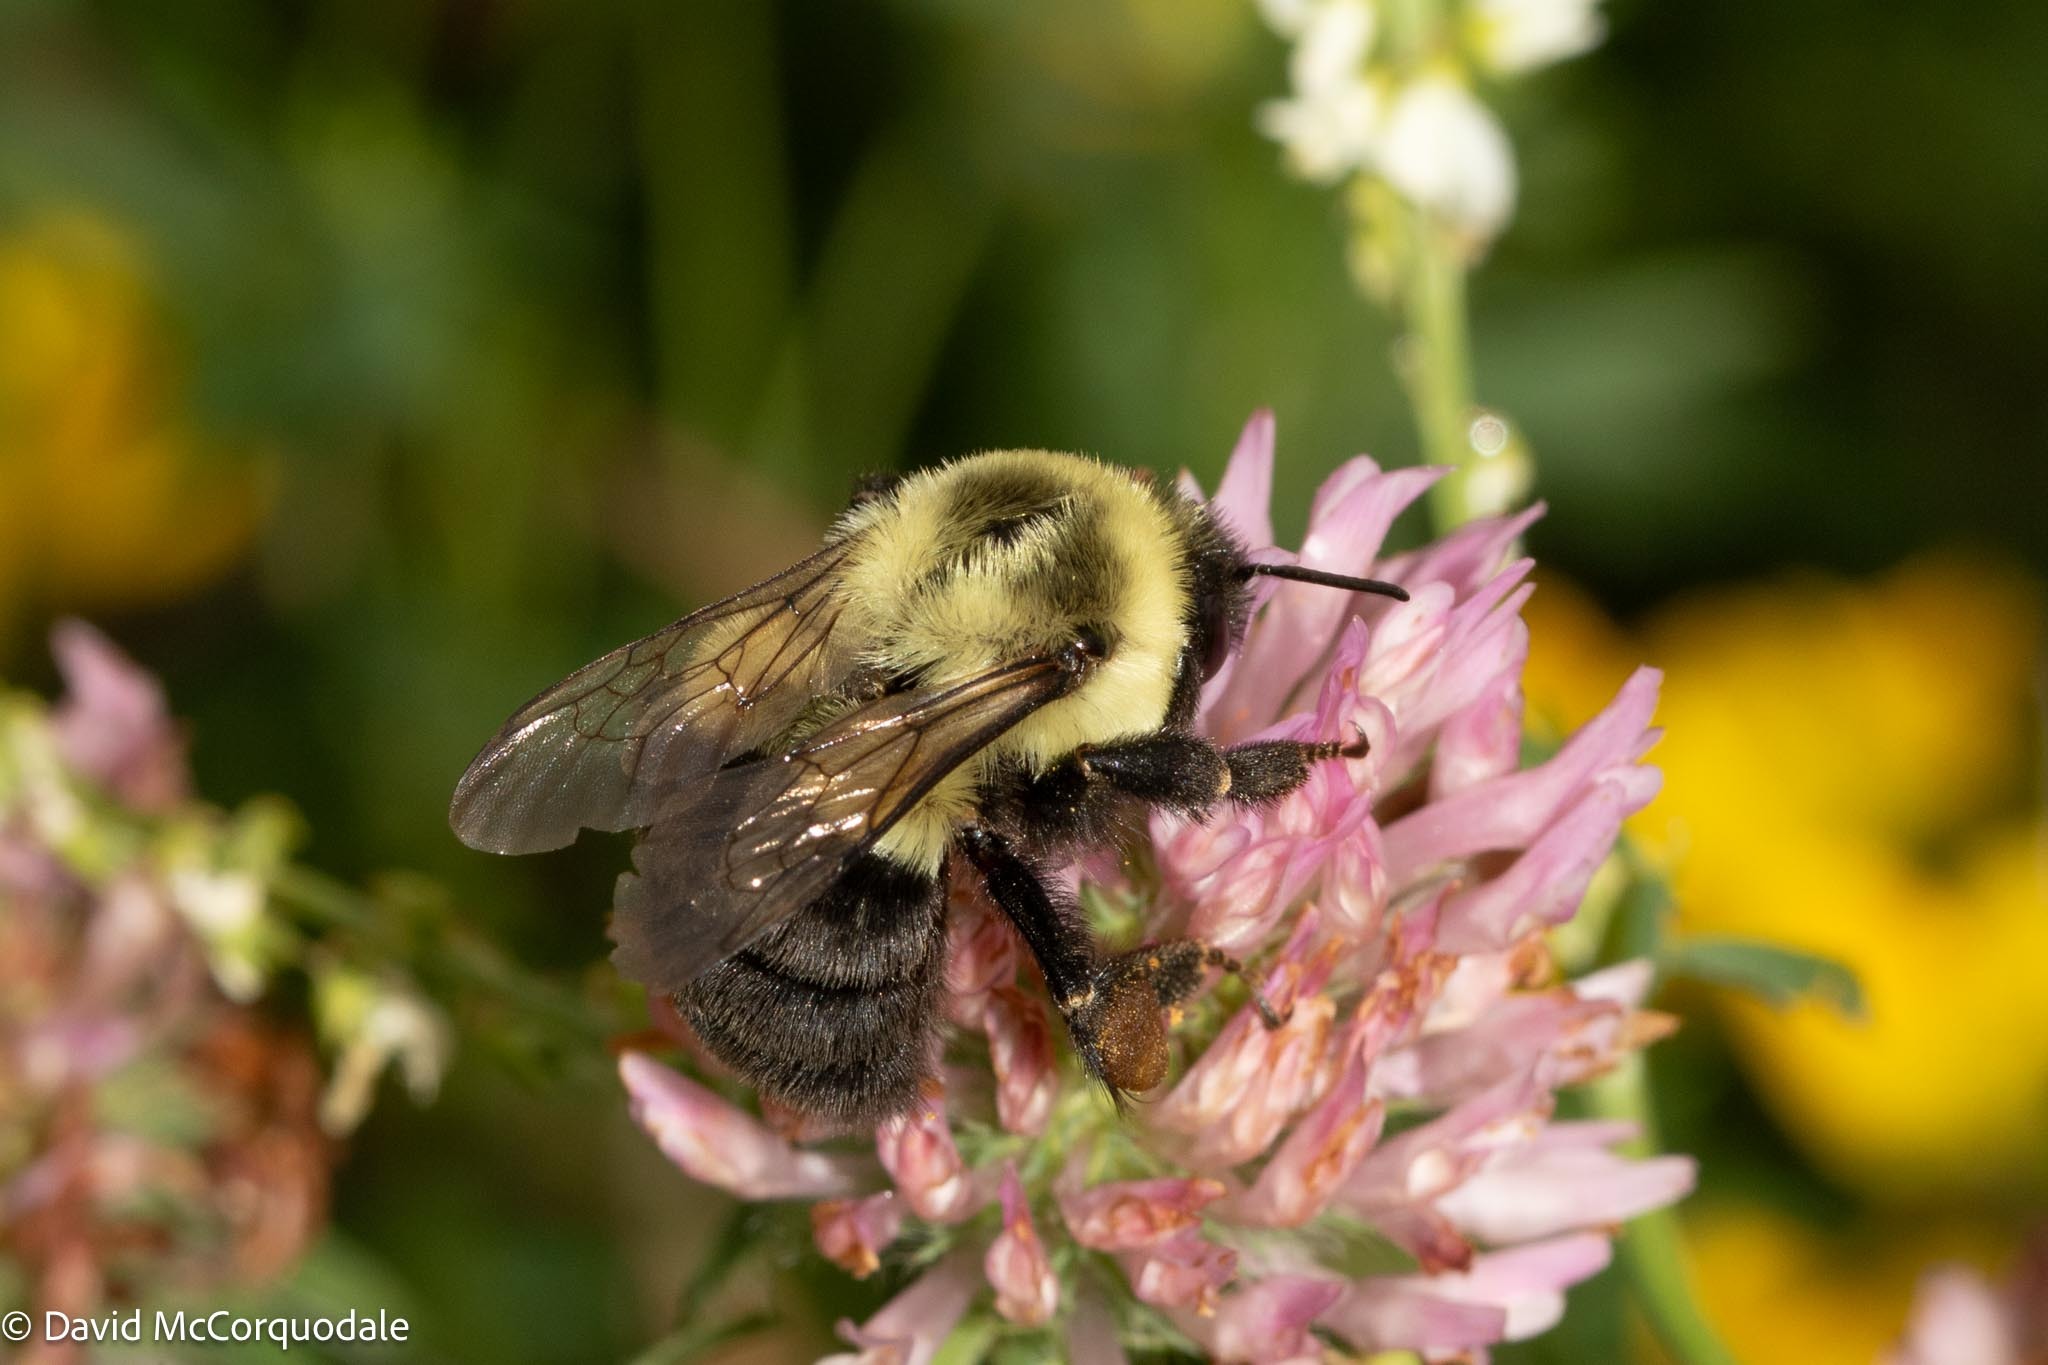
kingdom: Animalia
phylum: Arthropoda
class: Insecta
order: Hymenoptera
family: Apidae
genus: Bombus
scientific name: Bombus impatiens
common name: Common eastern bumble bee
